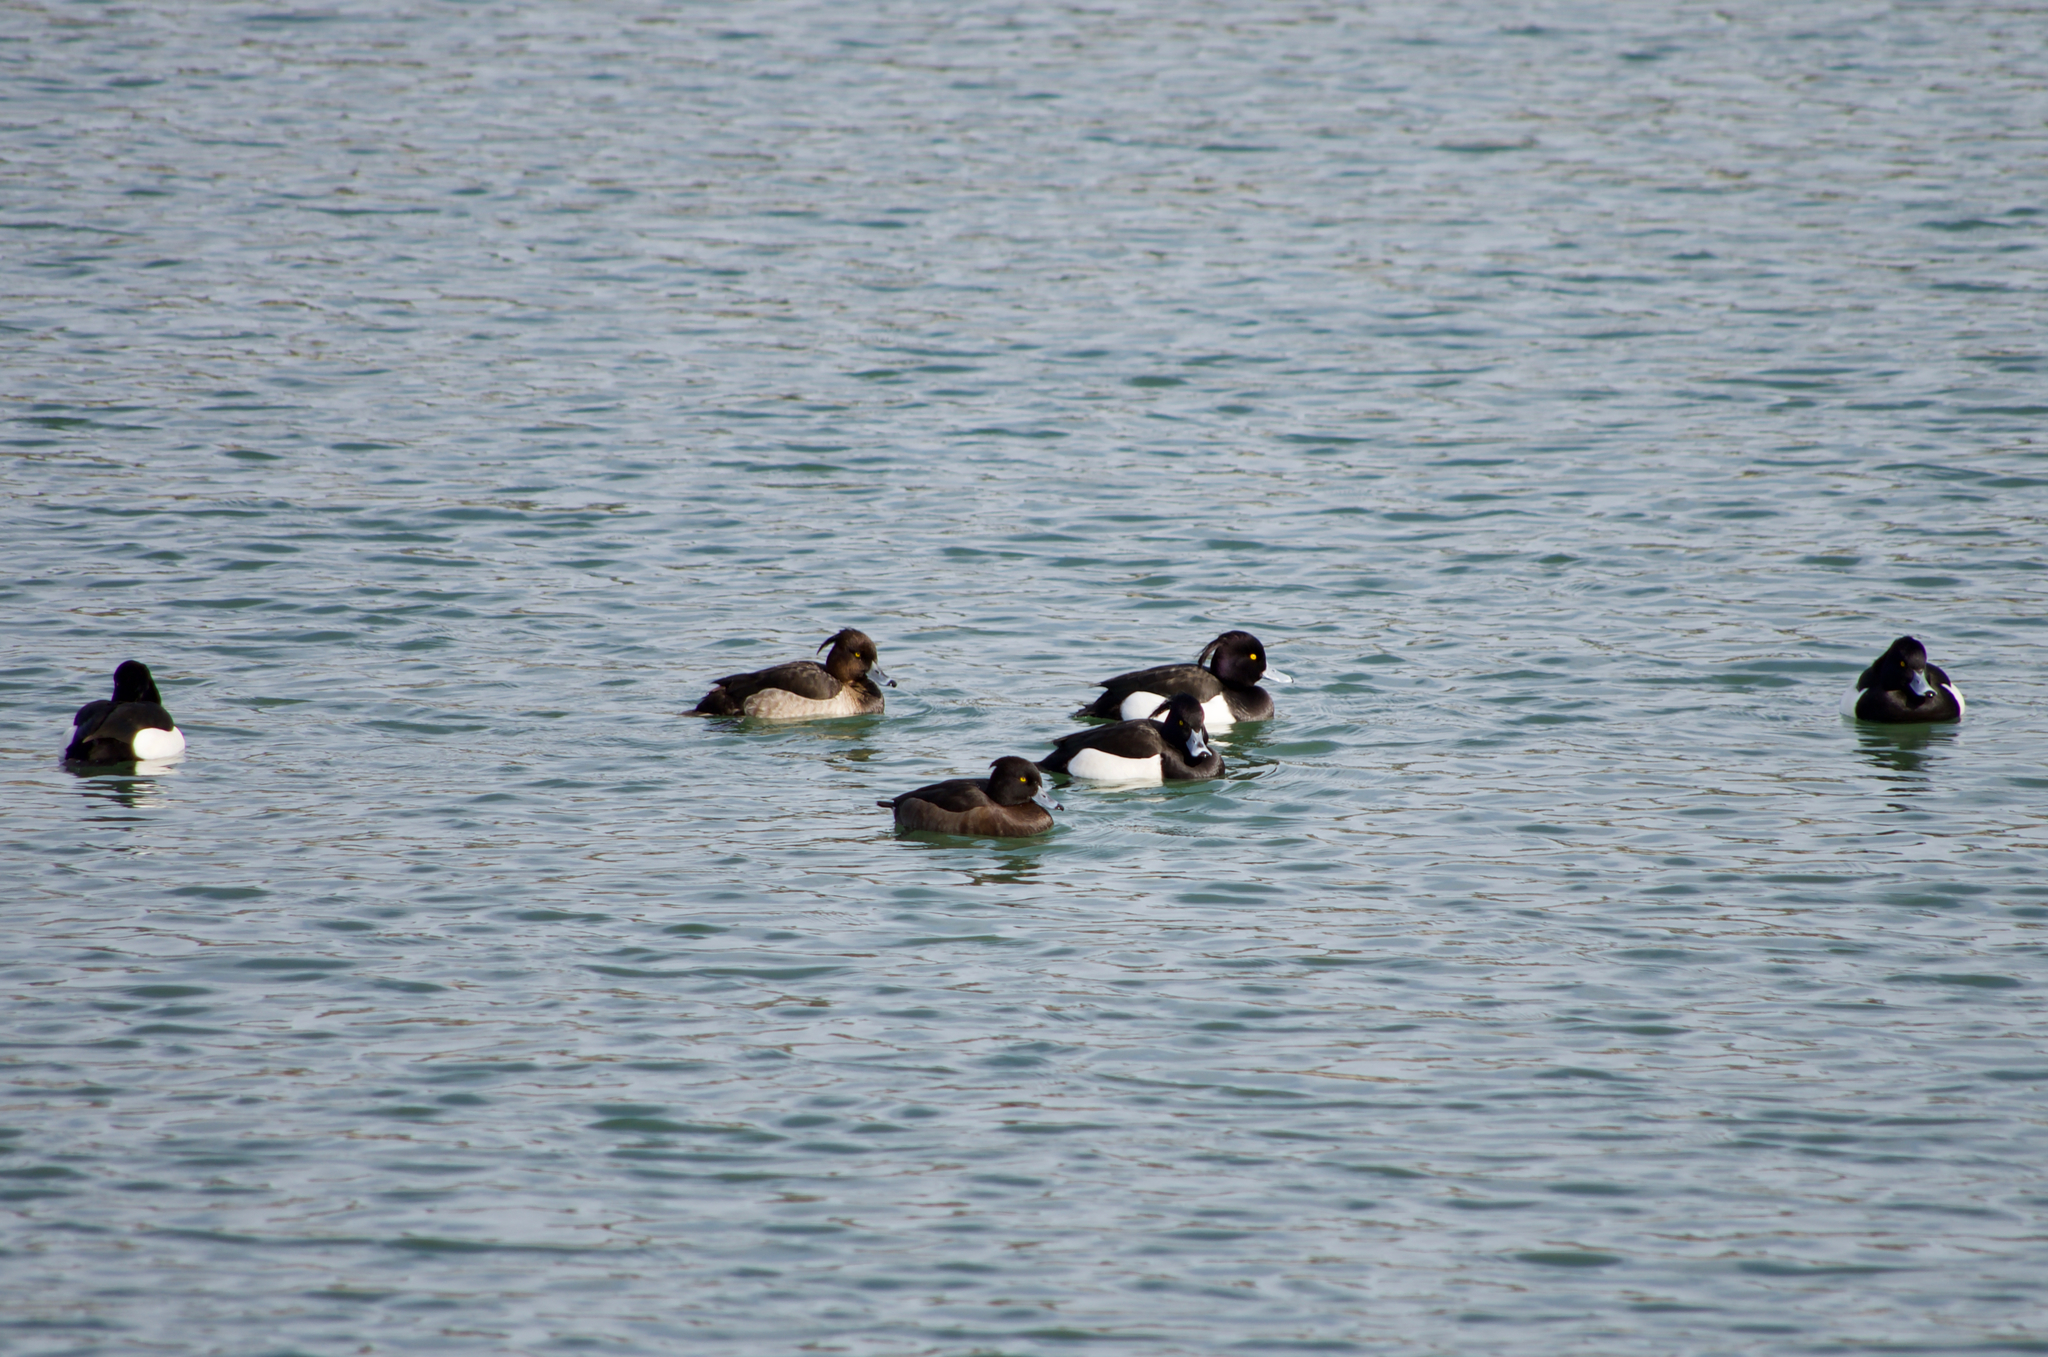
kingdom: Animalia
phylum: Chordata
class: Aves
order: Anseriformes
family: Anatidae
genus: Aythya
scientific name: Aythya fuligula
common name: Tufted duck
